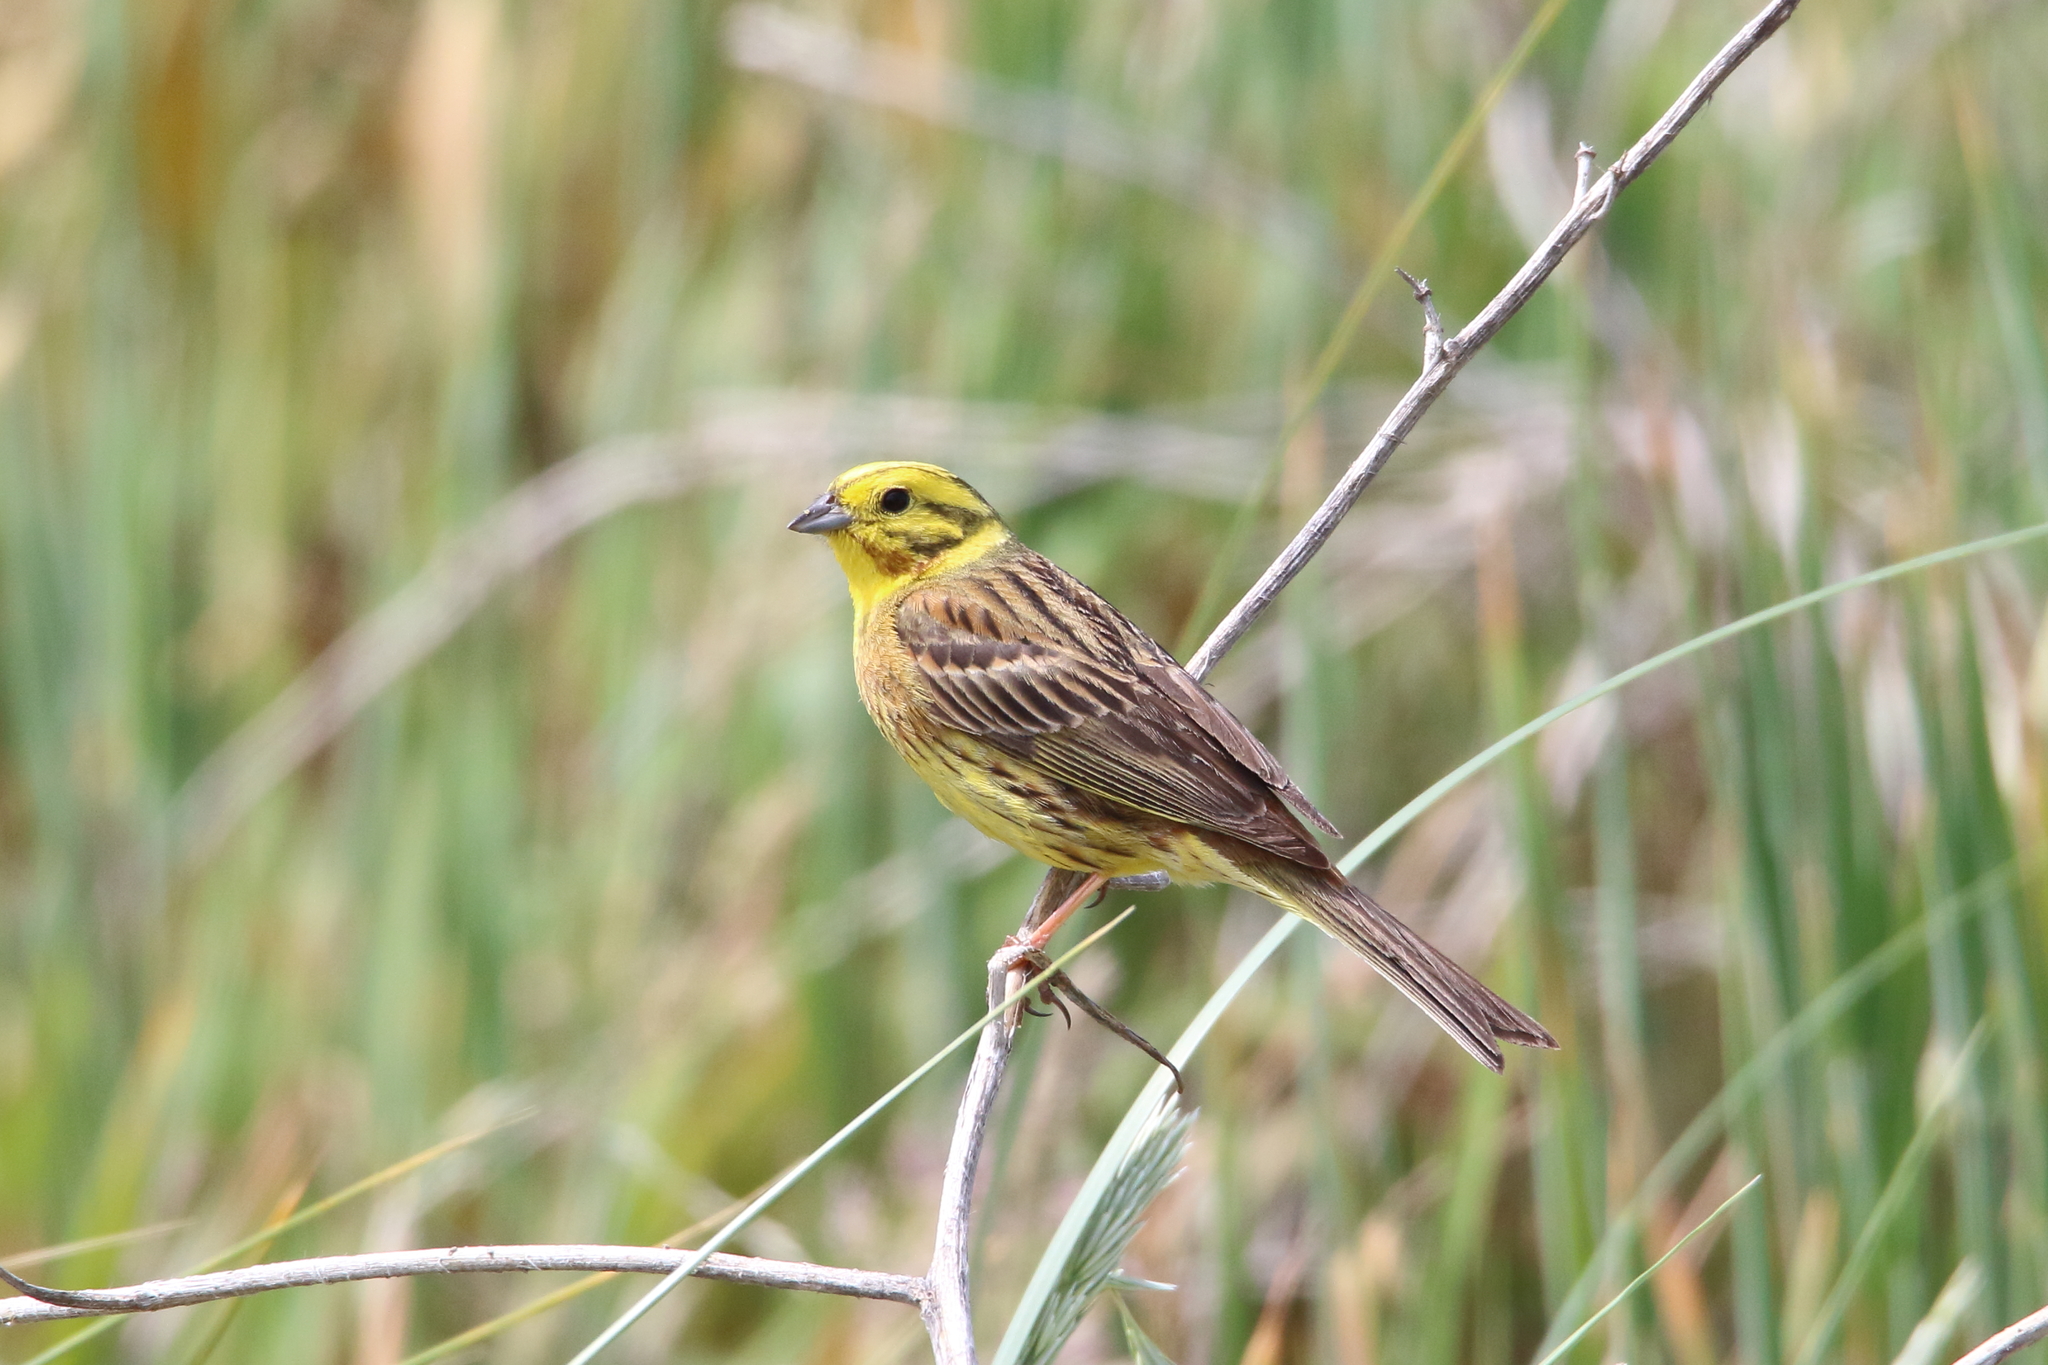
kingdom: Animalia
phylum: Chordata
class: Aves
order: Passeriformes
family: Emberizidae
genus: Emberiza
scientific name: Emberiza citrinella
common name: Yellowhammer
